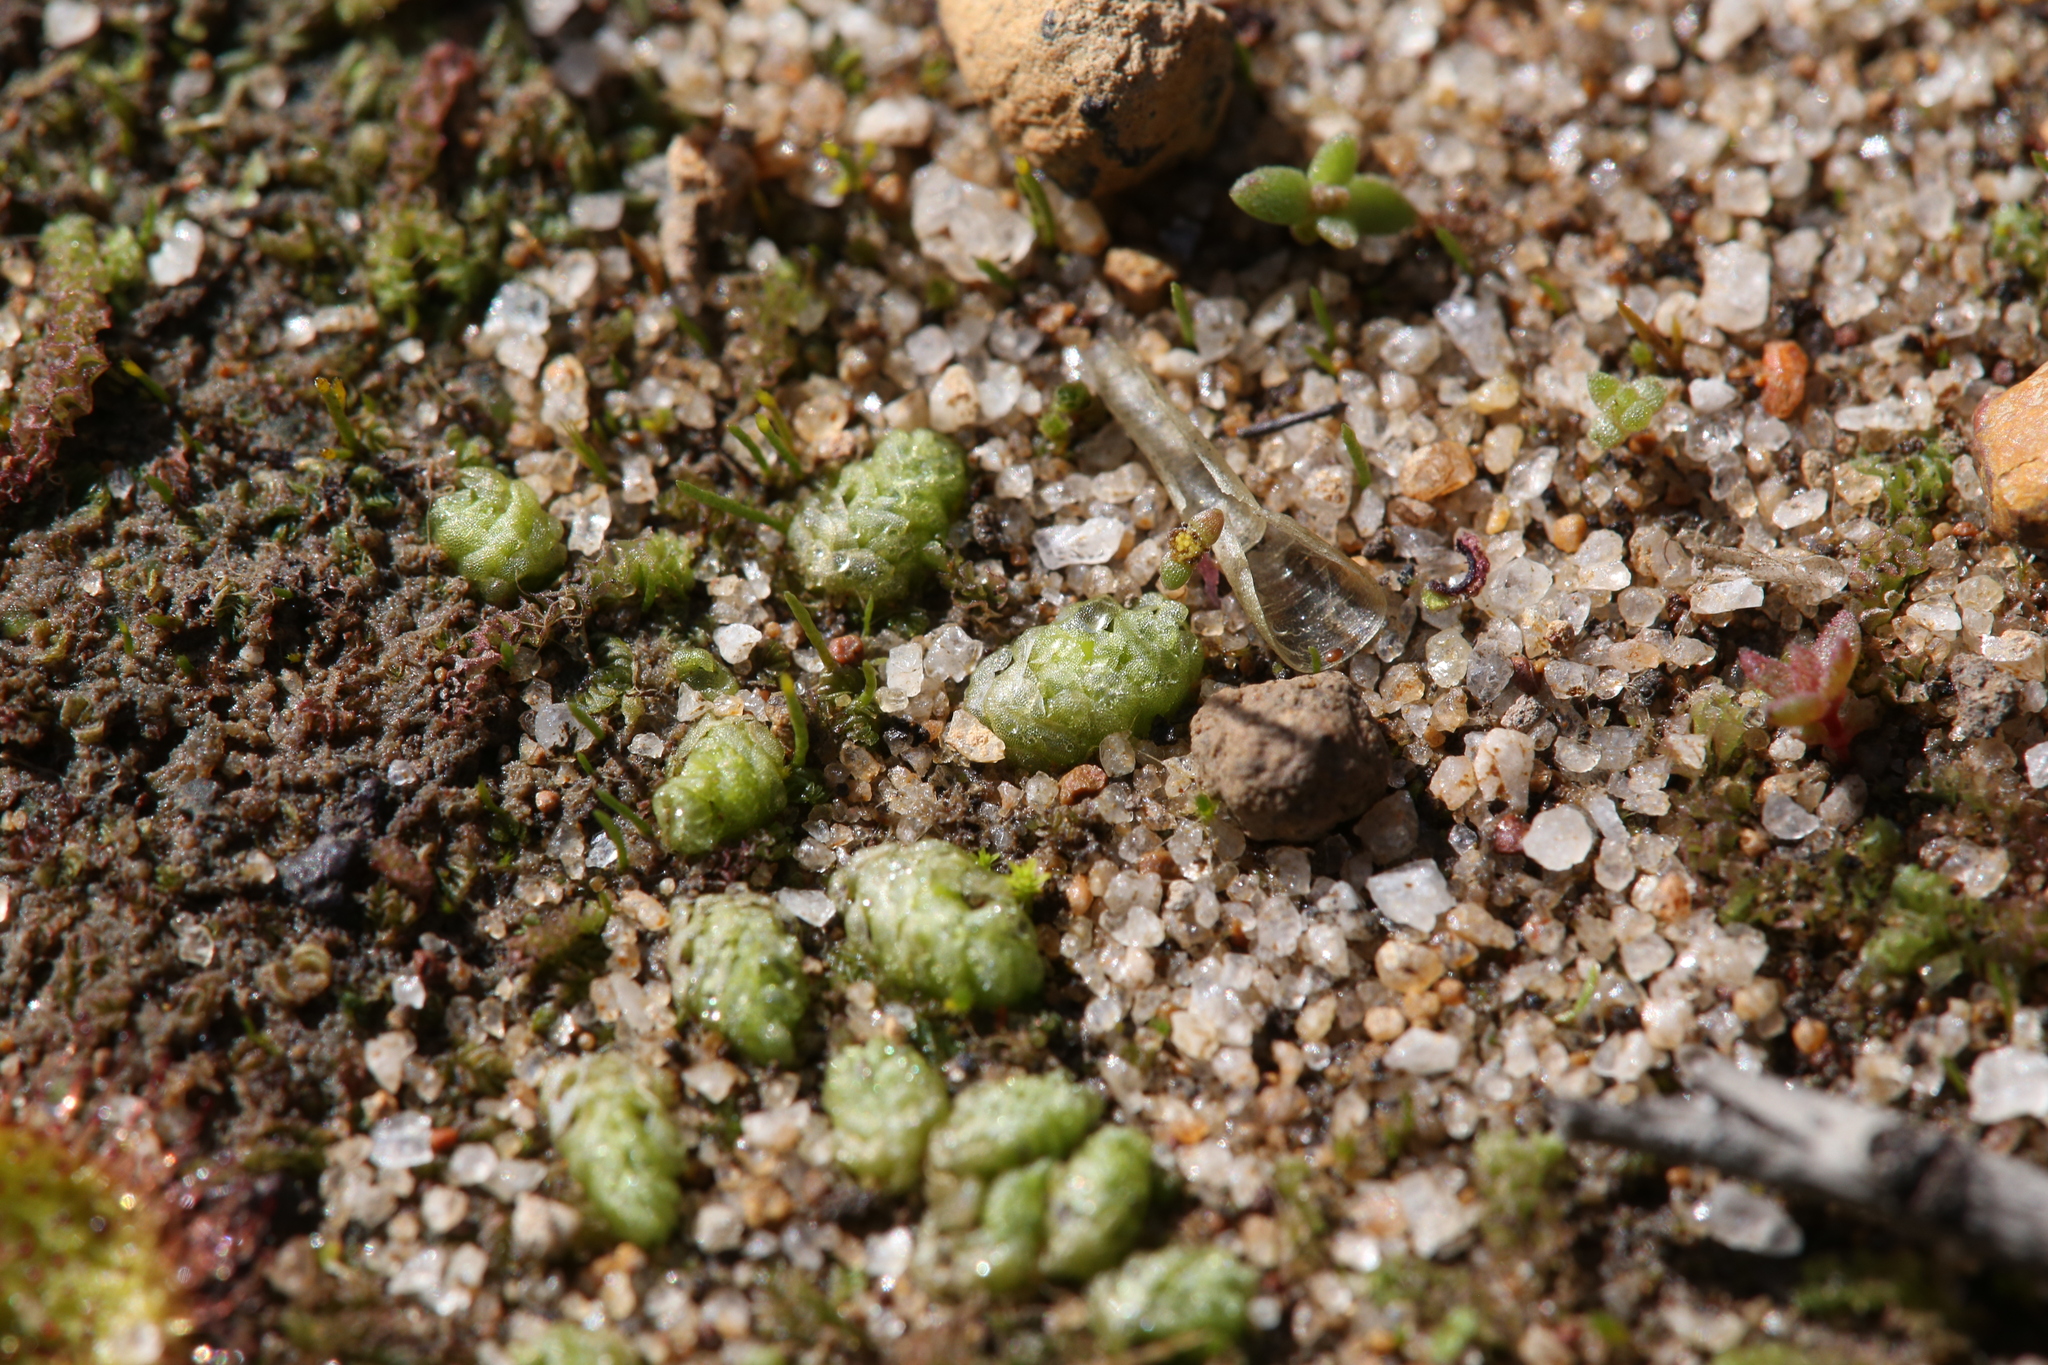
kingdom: Plantae
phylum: Marchantiophyta
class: Jungermanniopsida
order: Fossombroniales
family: Fossombroniaceae
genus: Fossombronia
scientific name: Fossombronia intestinalis
